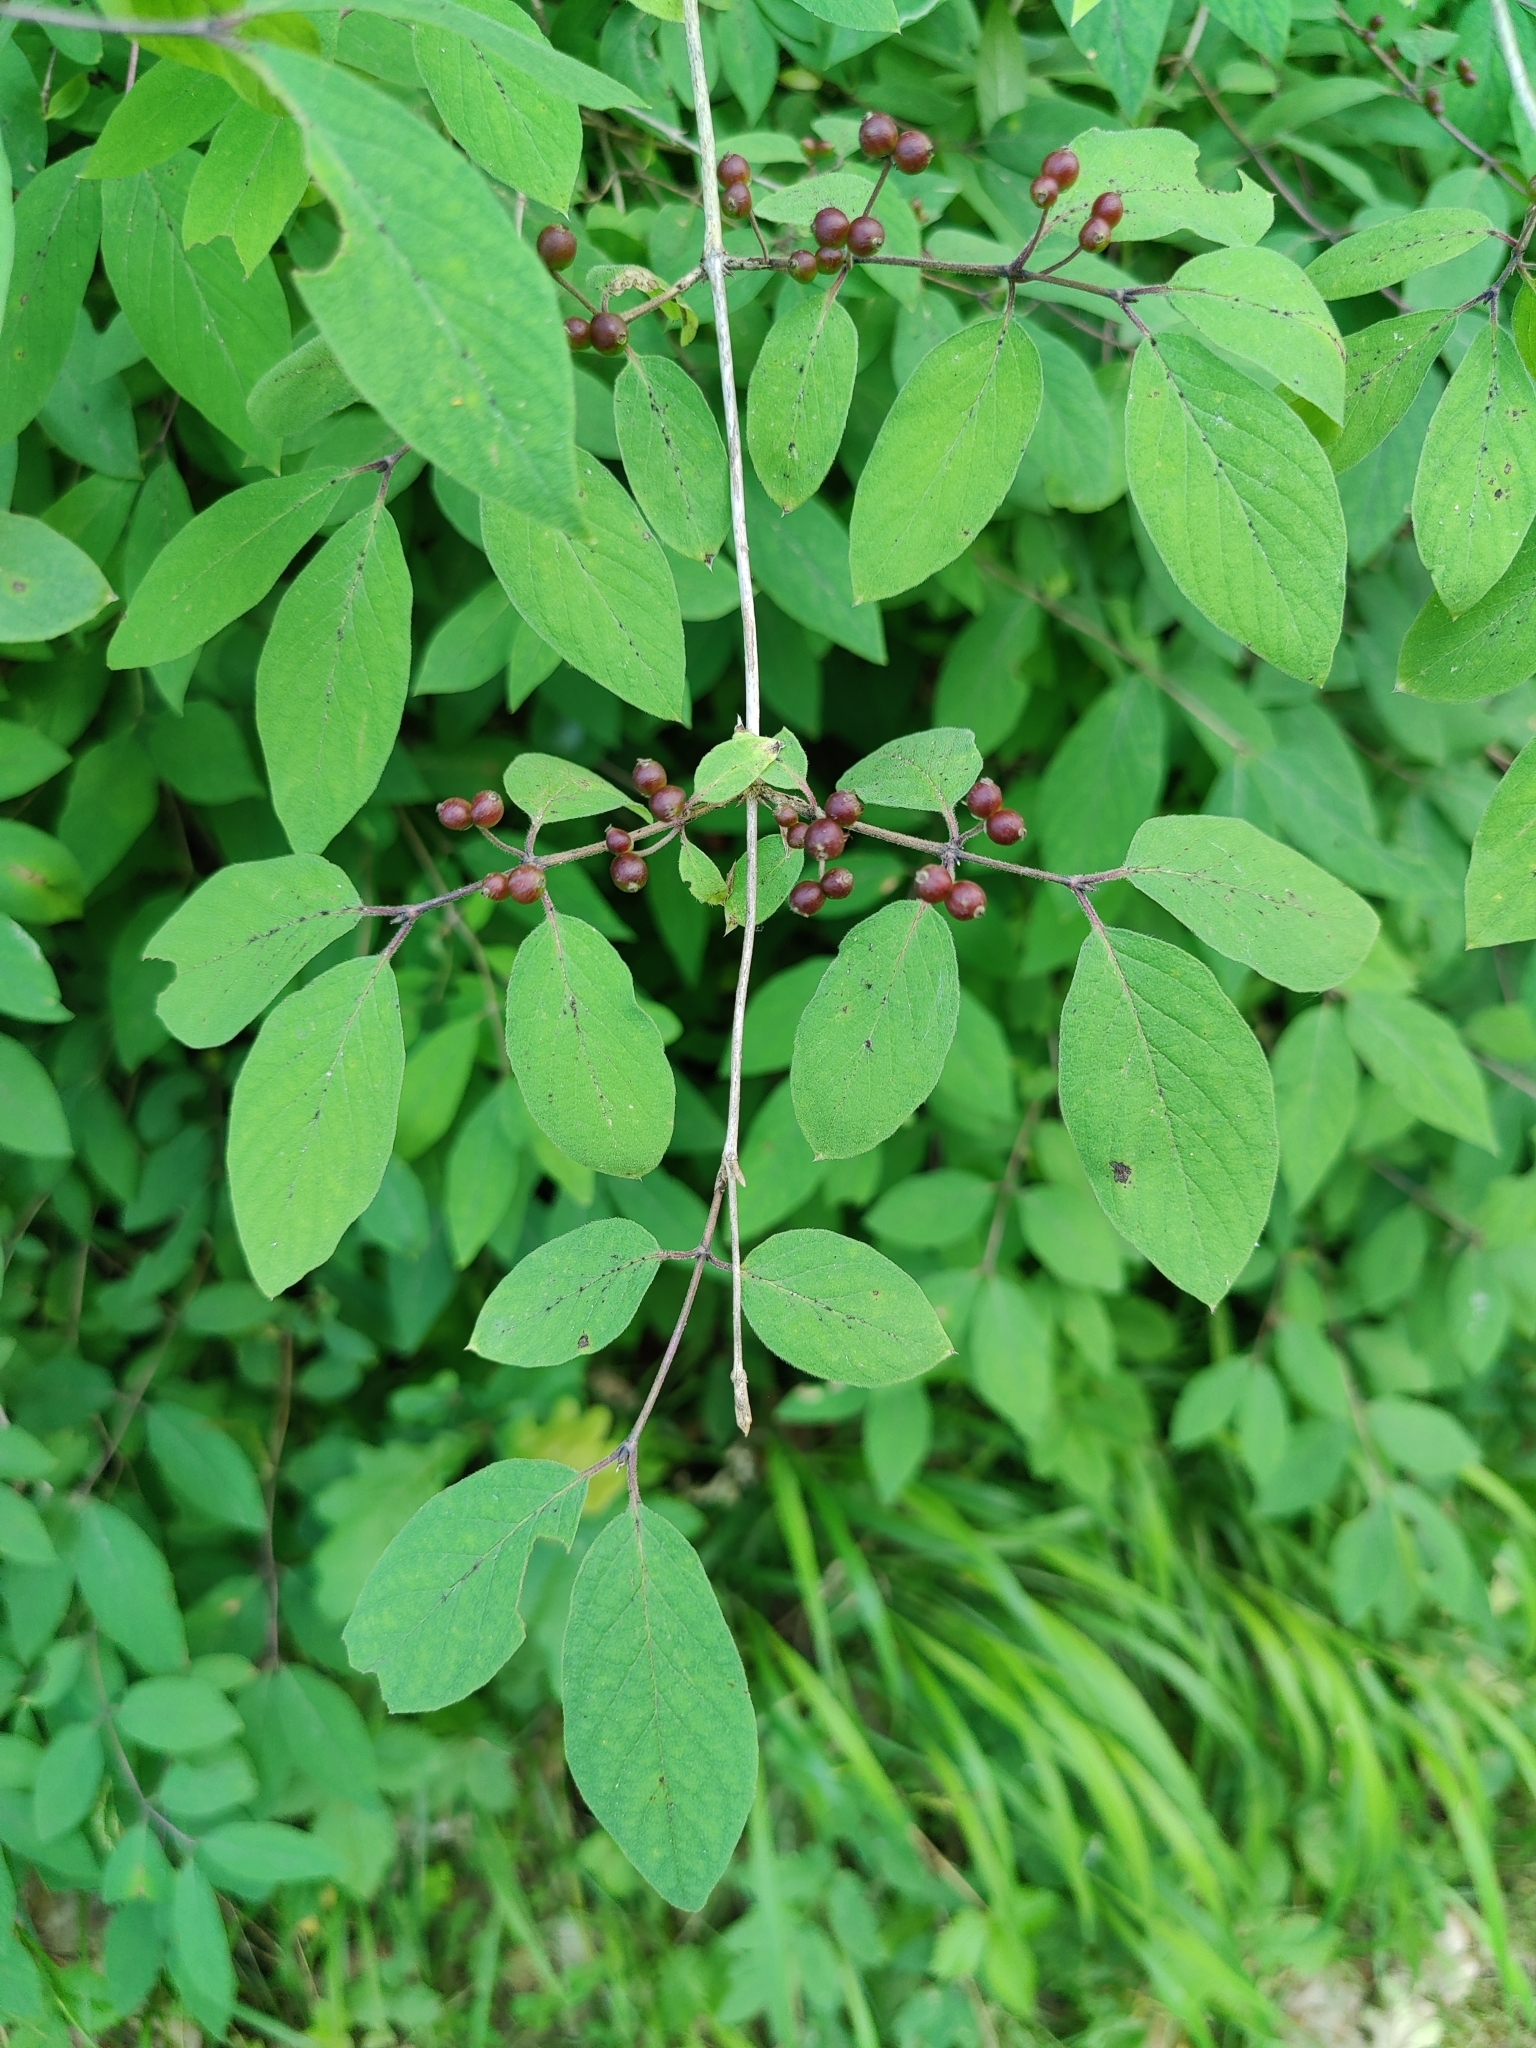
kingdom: Plantae
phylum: Tracheophyta
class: Magnoliopsida
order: Dipsacales
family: Caprifoliaceae
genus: Lonicera
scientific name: Lonicera xylosteum
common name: Fly honeysuckle
